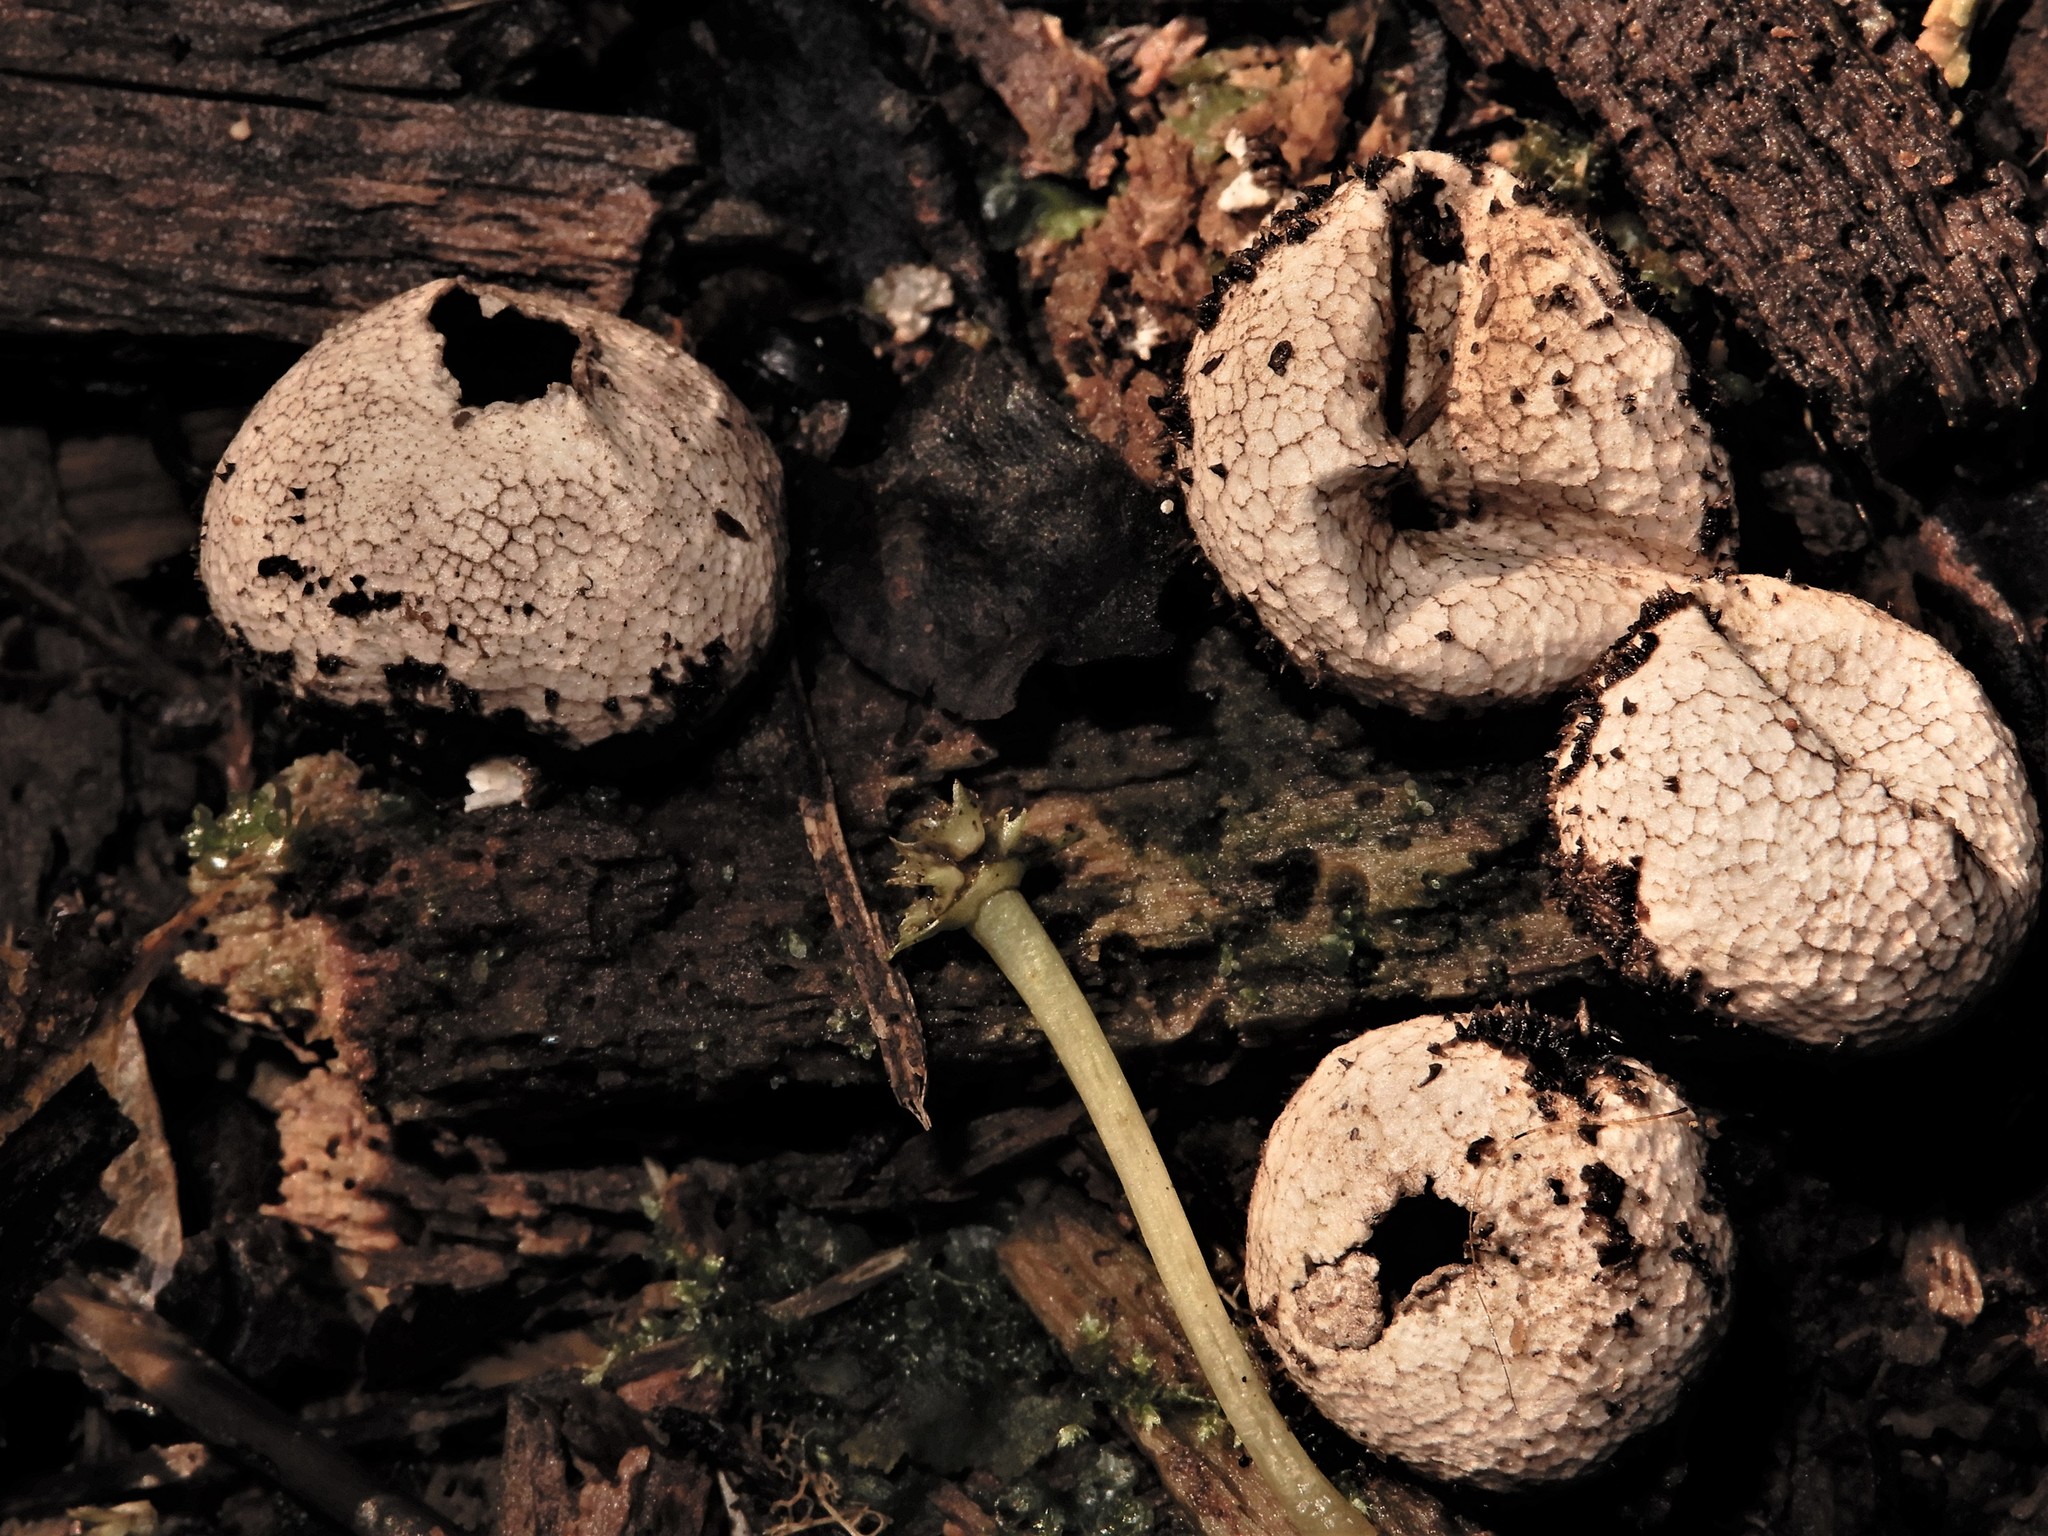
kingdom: Fungi
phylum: Basidiomycota
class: Agaricomycetes
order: Agaricales
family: Lycoperdaceae
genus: Lycoperdon
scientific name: Lycoperdon compactum
